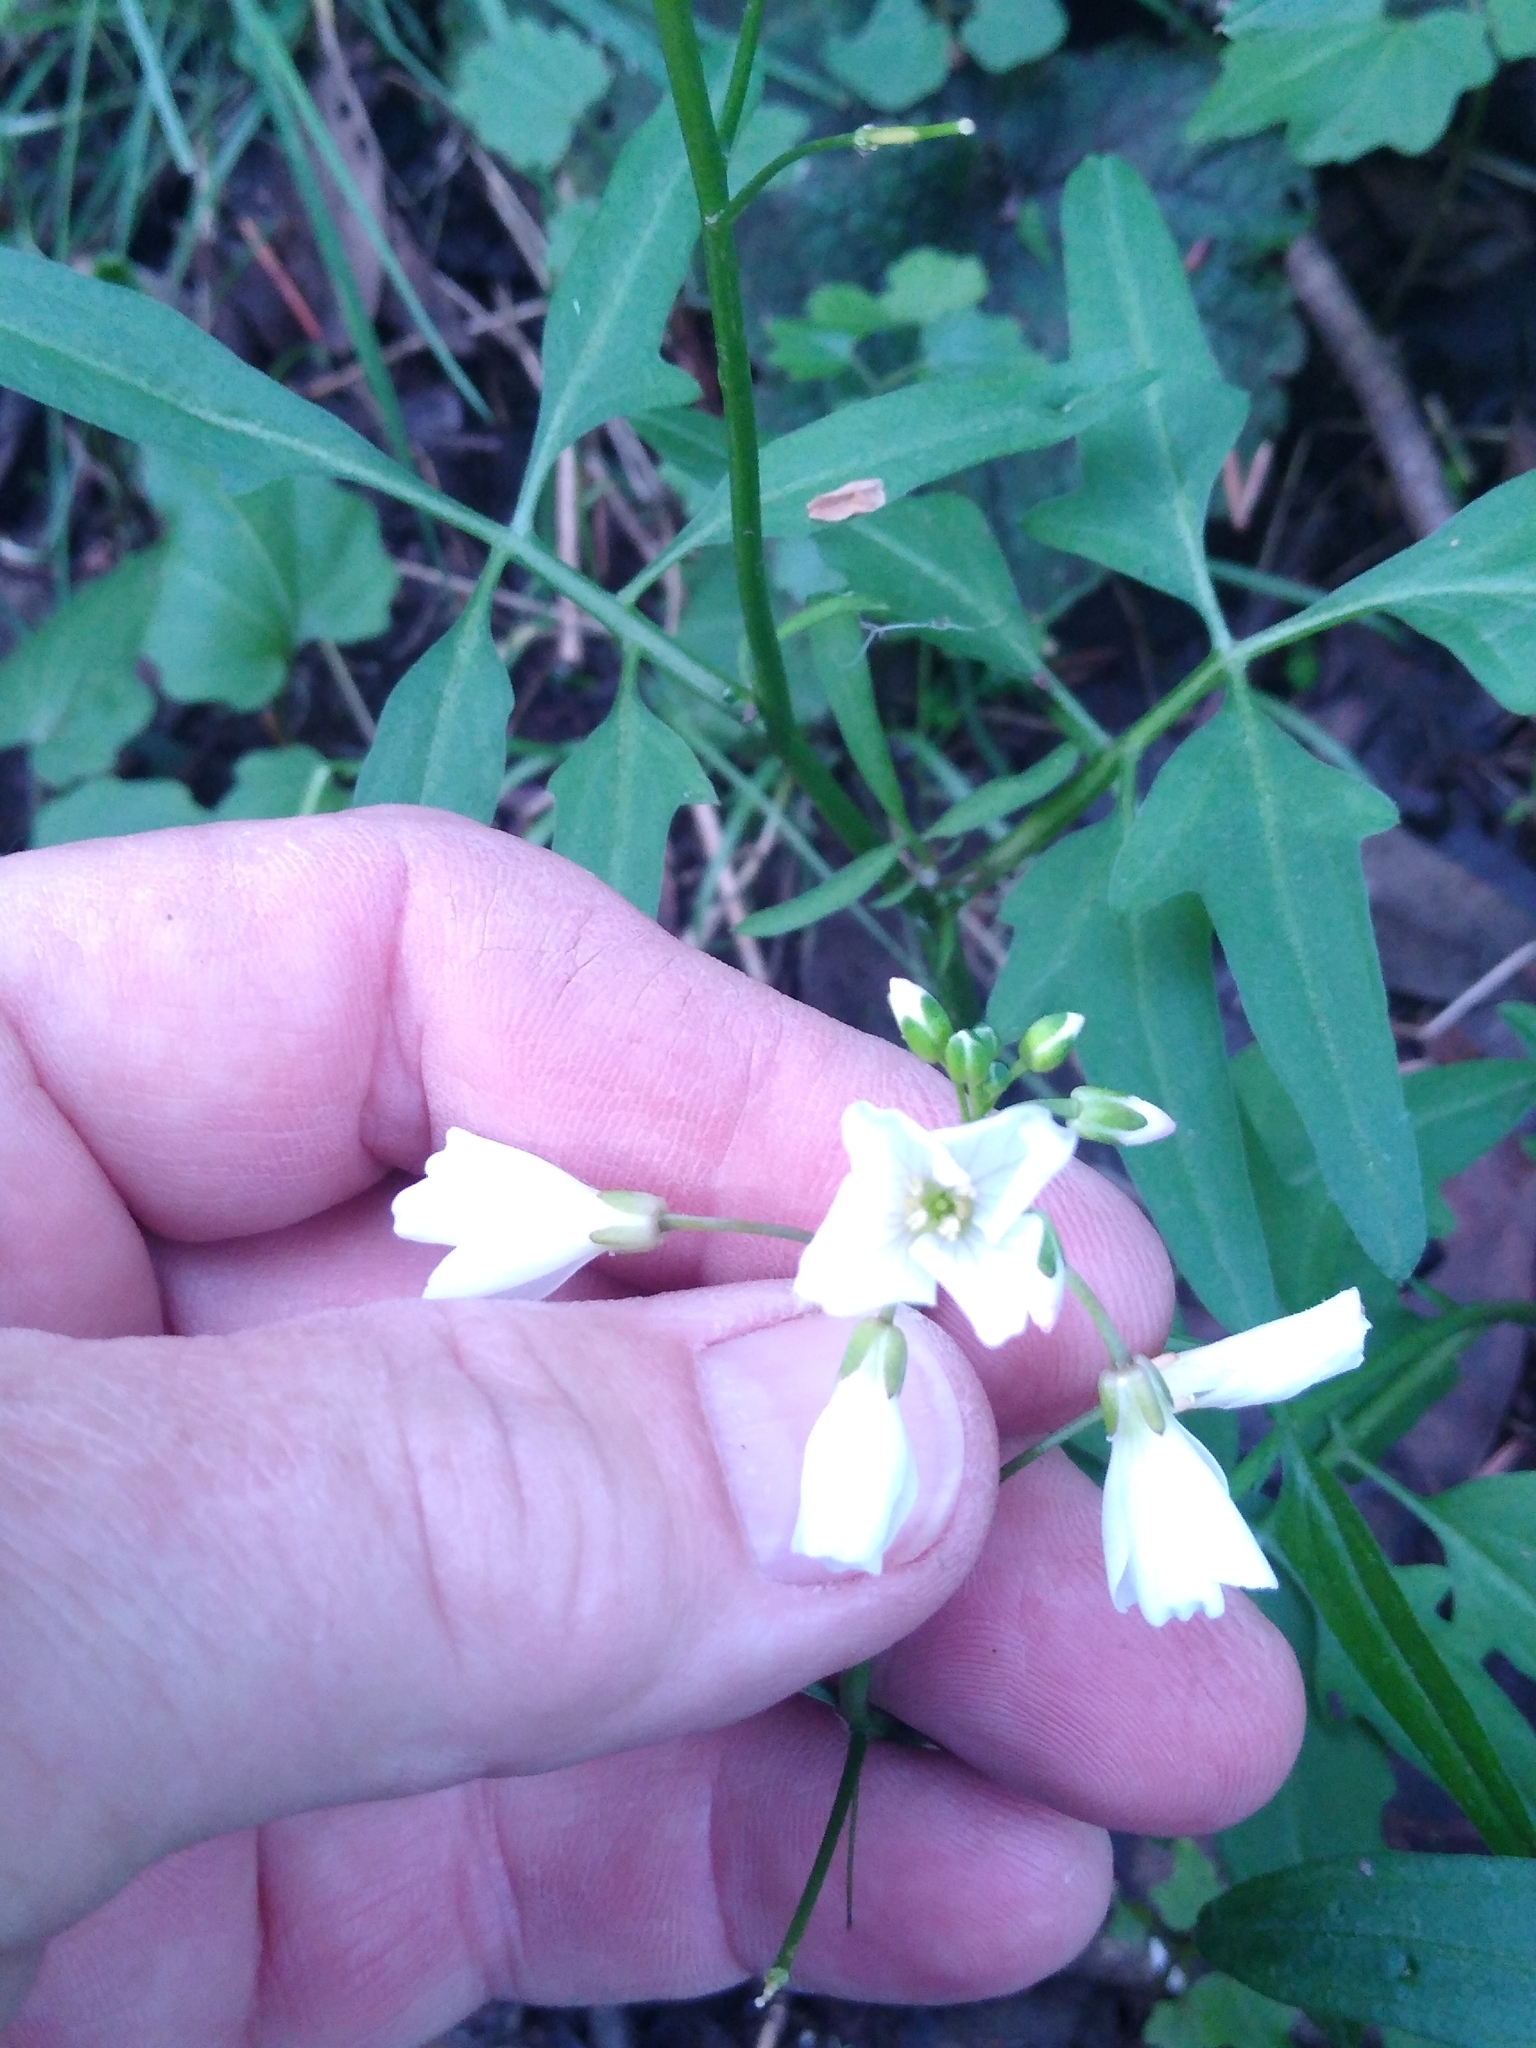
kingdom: Plantae
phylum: Tracheophyta
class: Magnoliopsida
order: Brassicales
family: Brassicaceae
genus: Cardamine
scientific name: Cardamine californica
